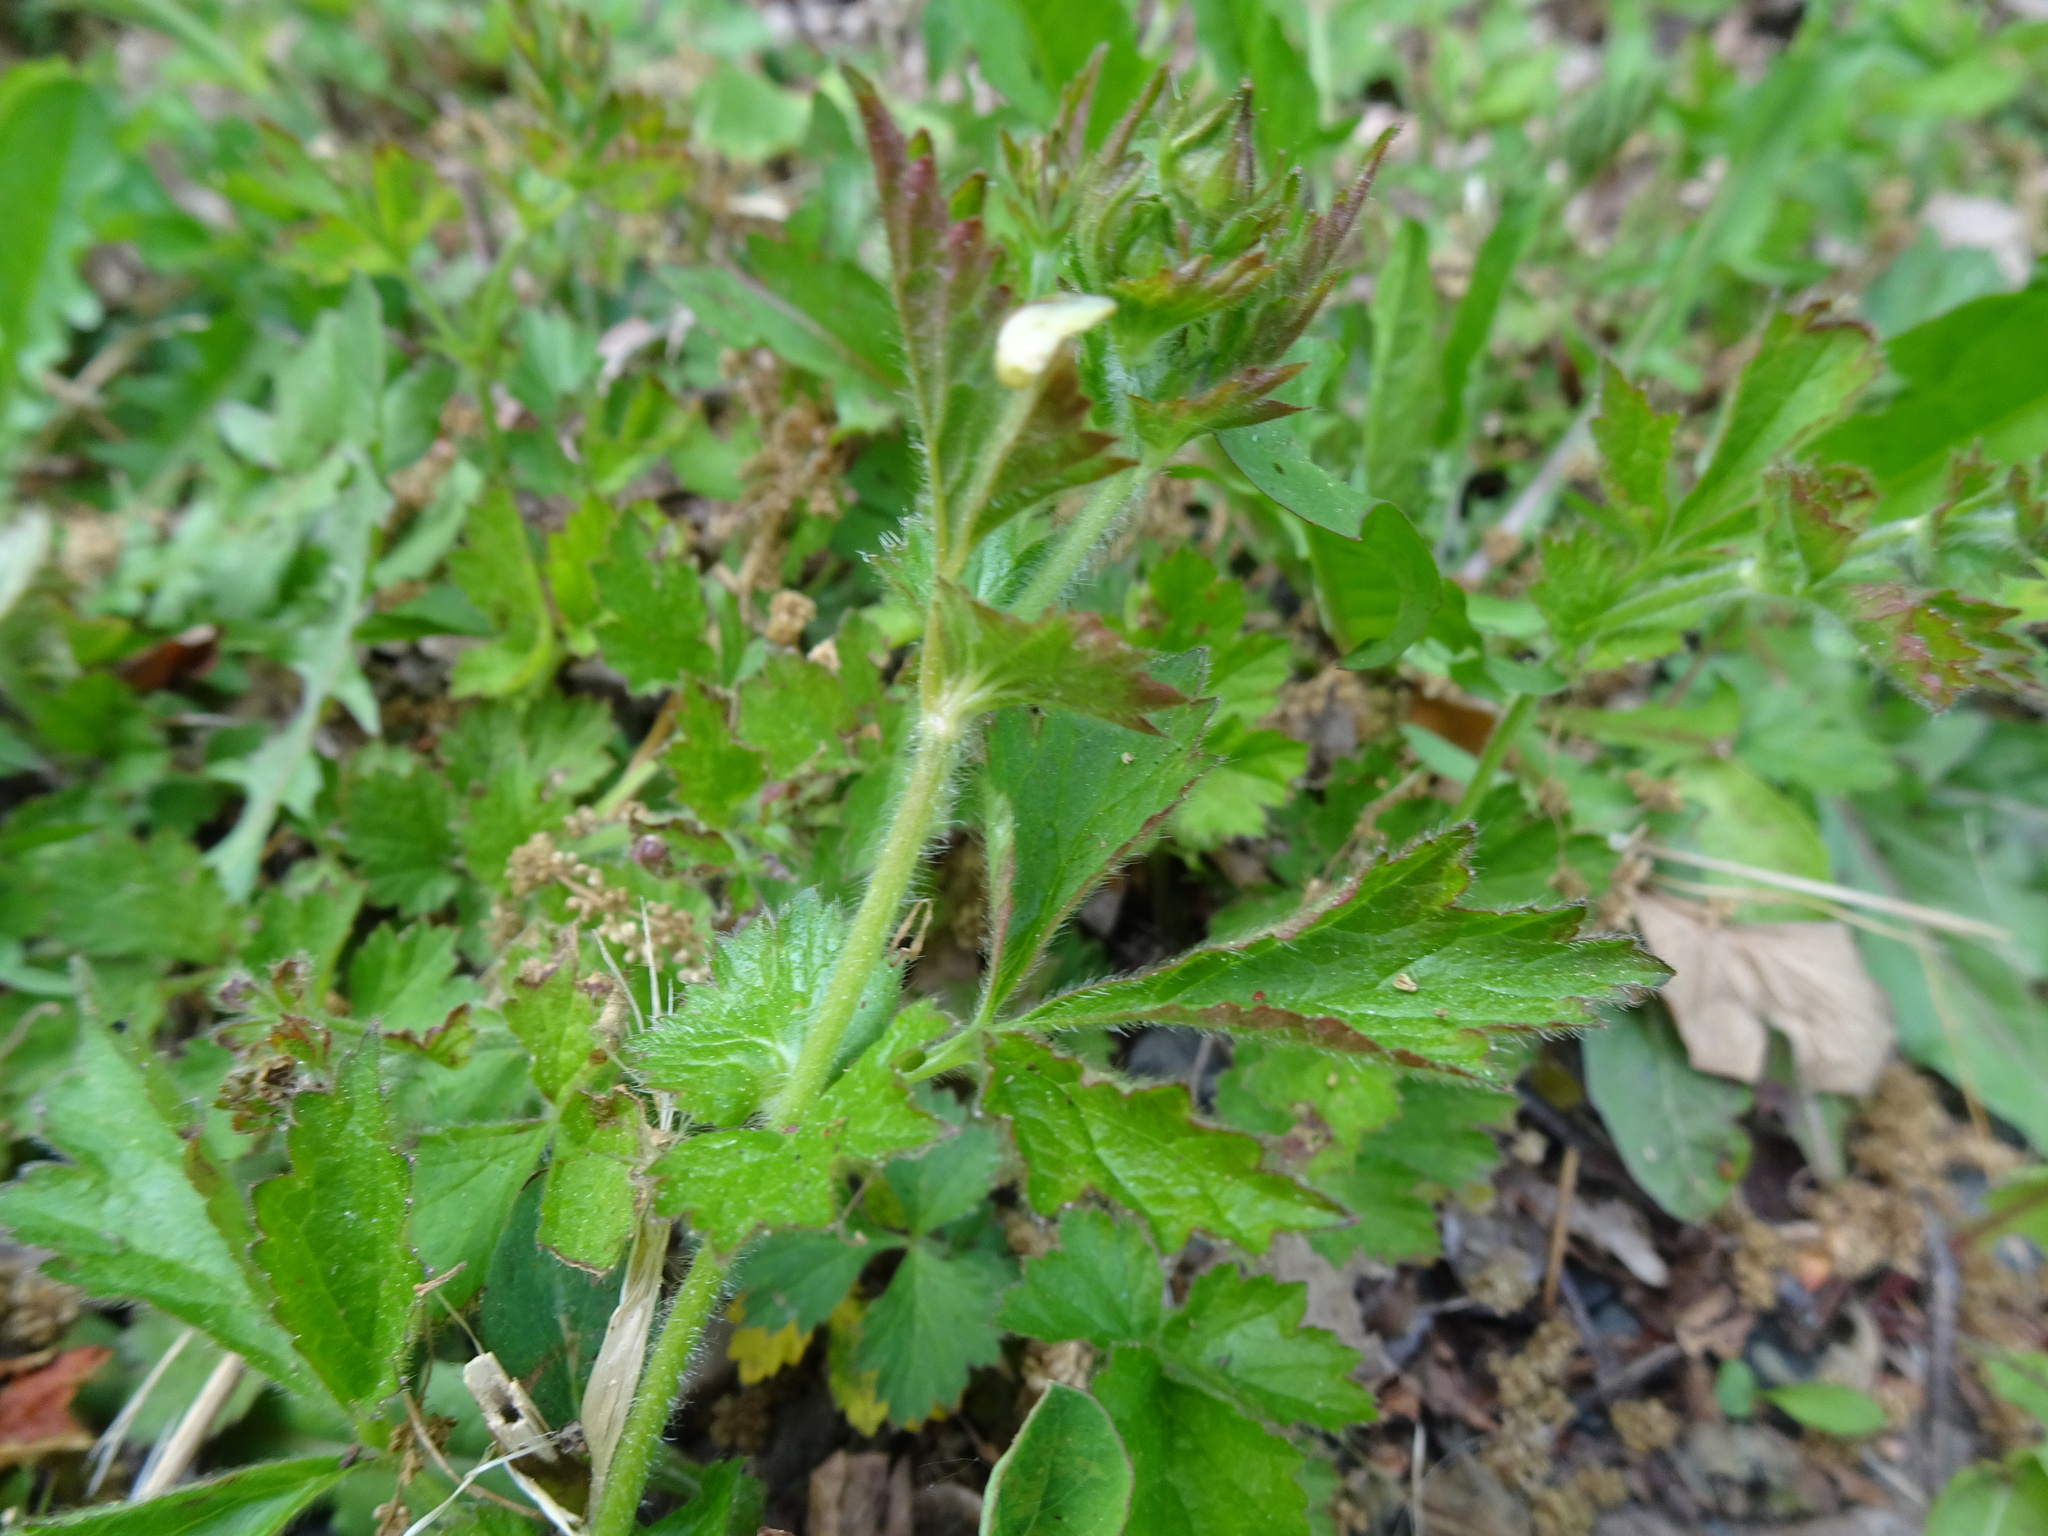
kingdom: Plantae
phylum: Tracheophyta
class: Magnoliopsida
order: Rosales
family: Rosaceae
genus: Geum
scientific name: Geum urbanum
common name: Wood avens
